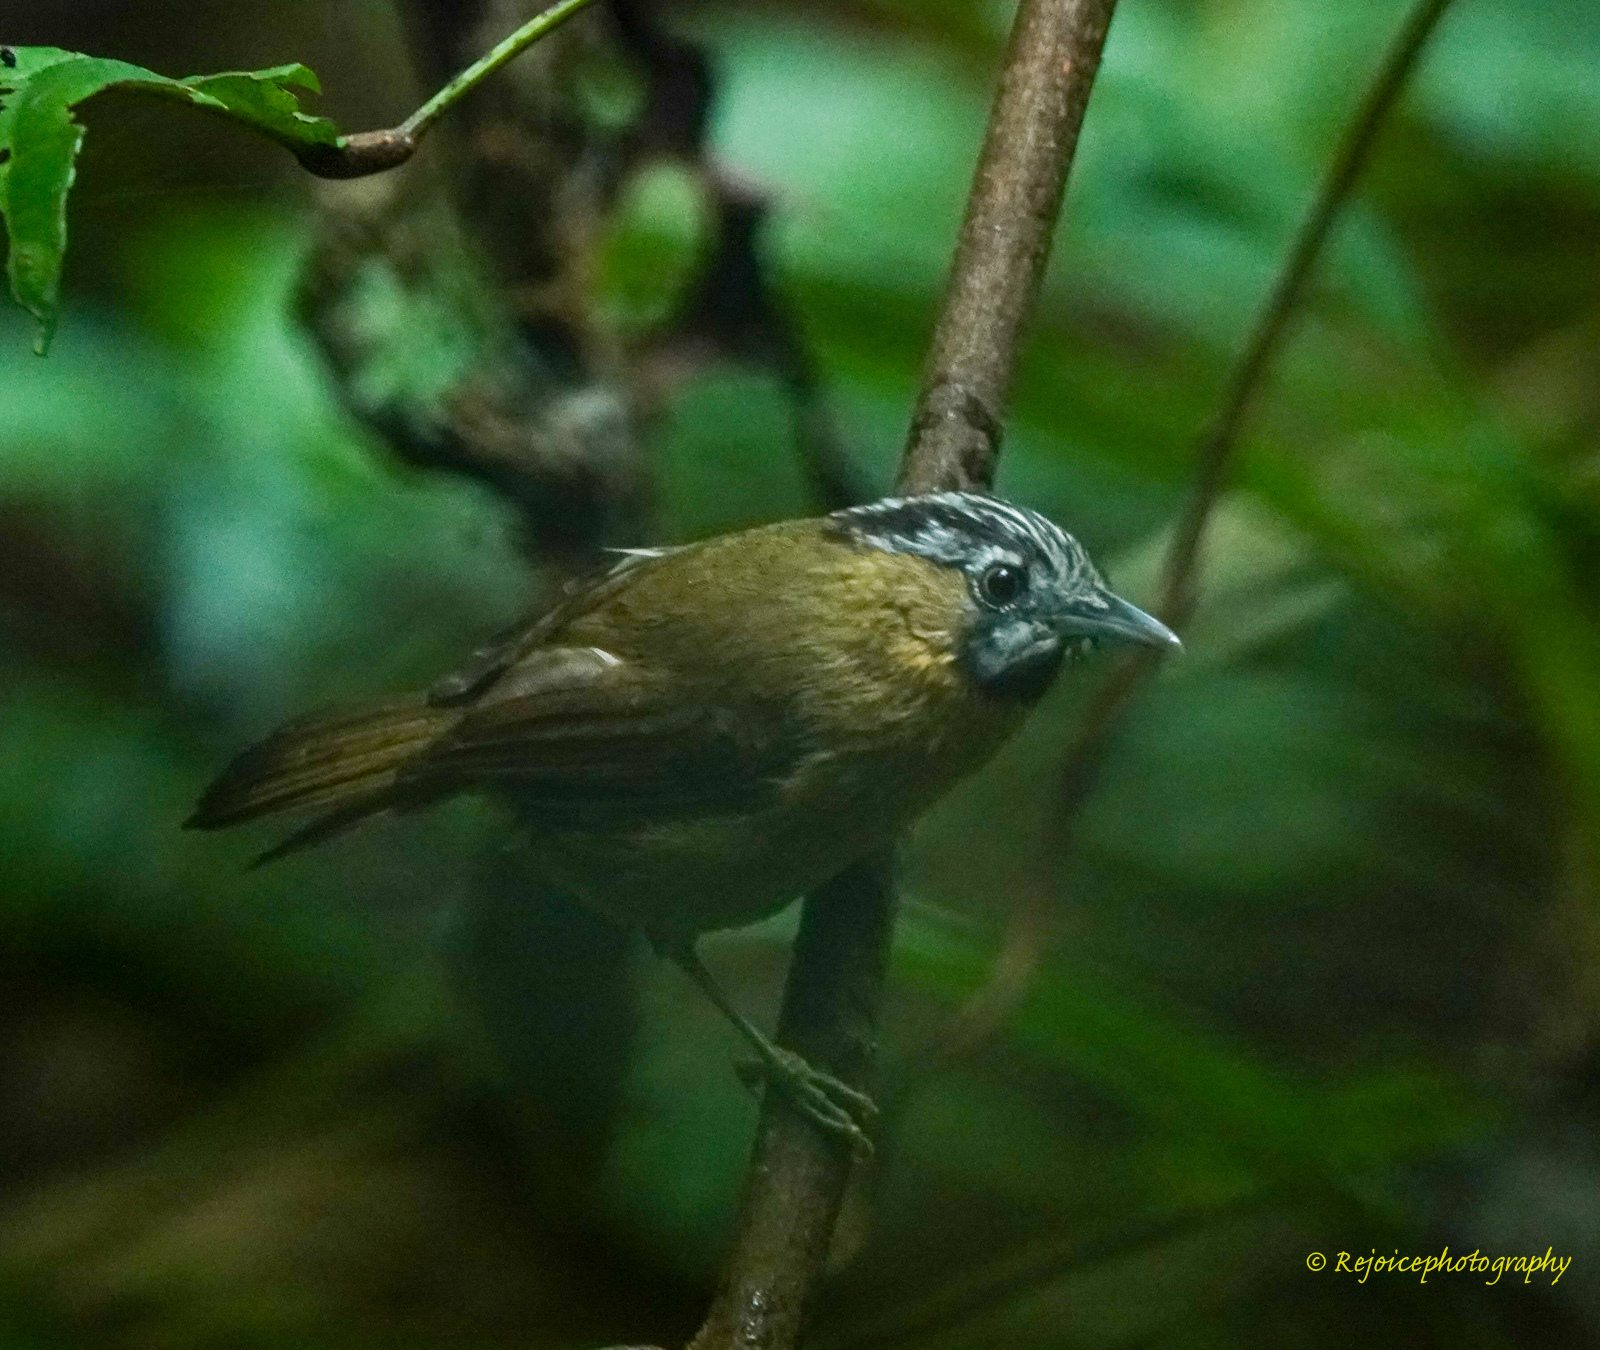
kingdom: Animalia
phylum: Chordata
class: Aves
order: Passeriformes
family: Timaliidae
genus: Stachyris
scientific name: Stachyris nigriceps
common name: Grey-throated babbler
